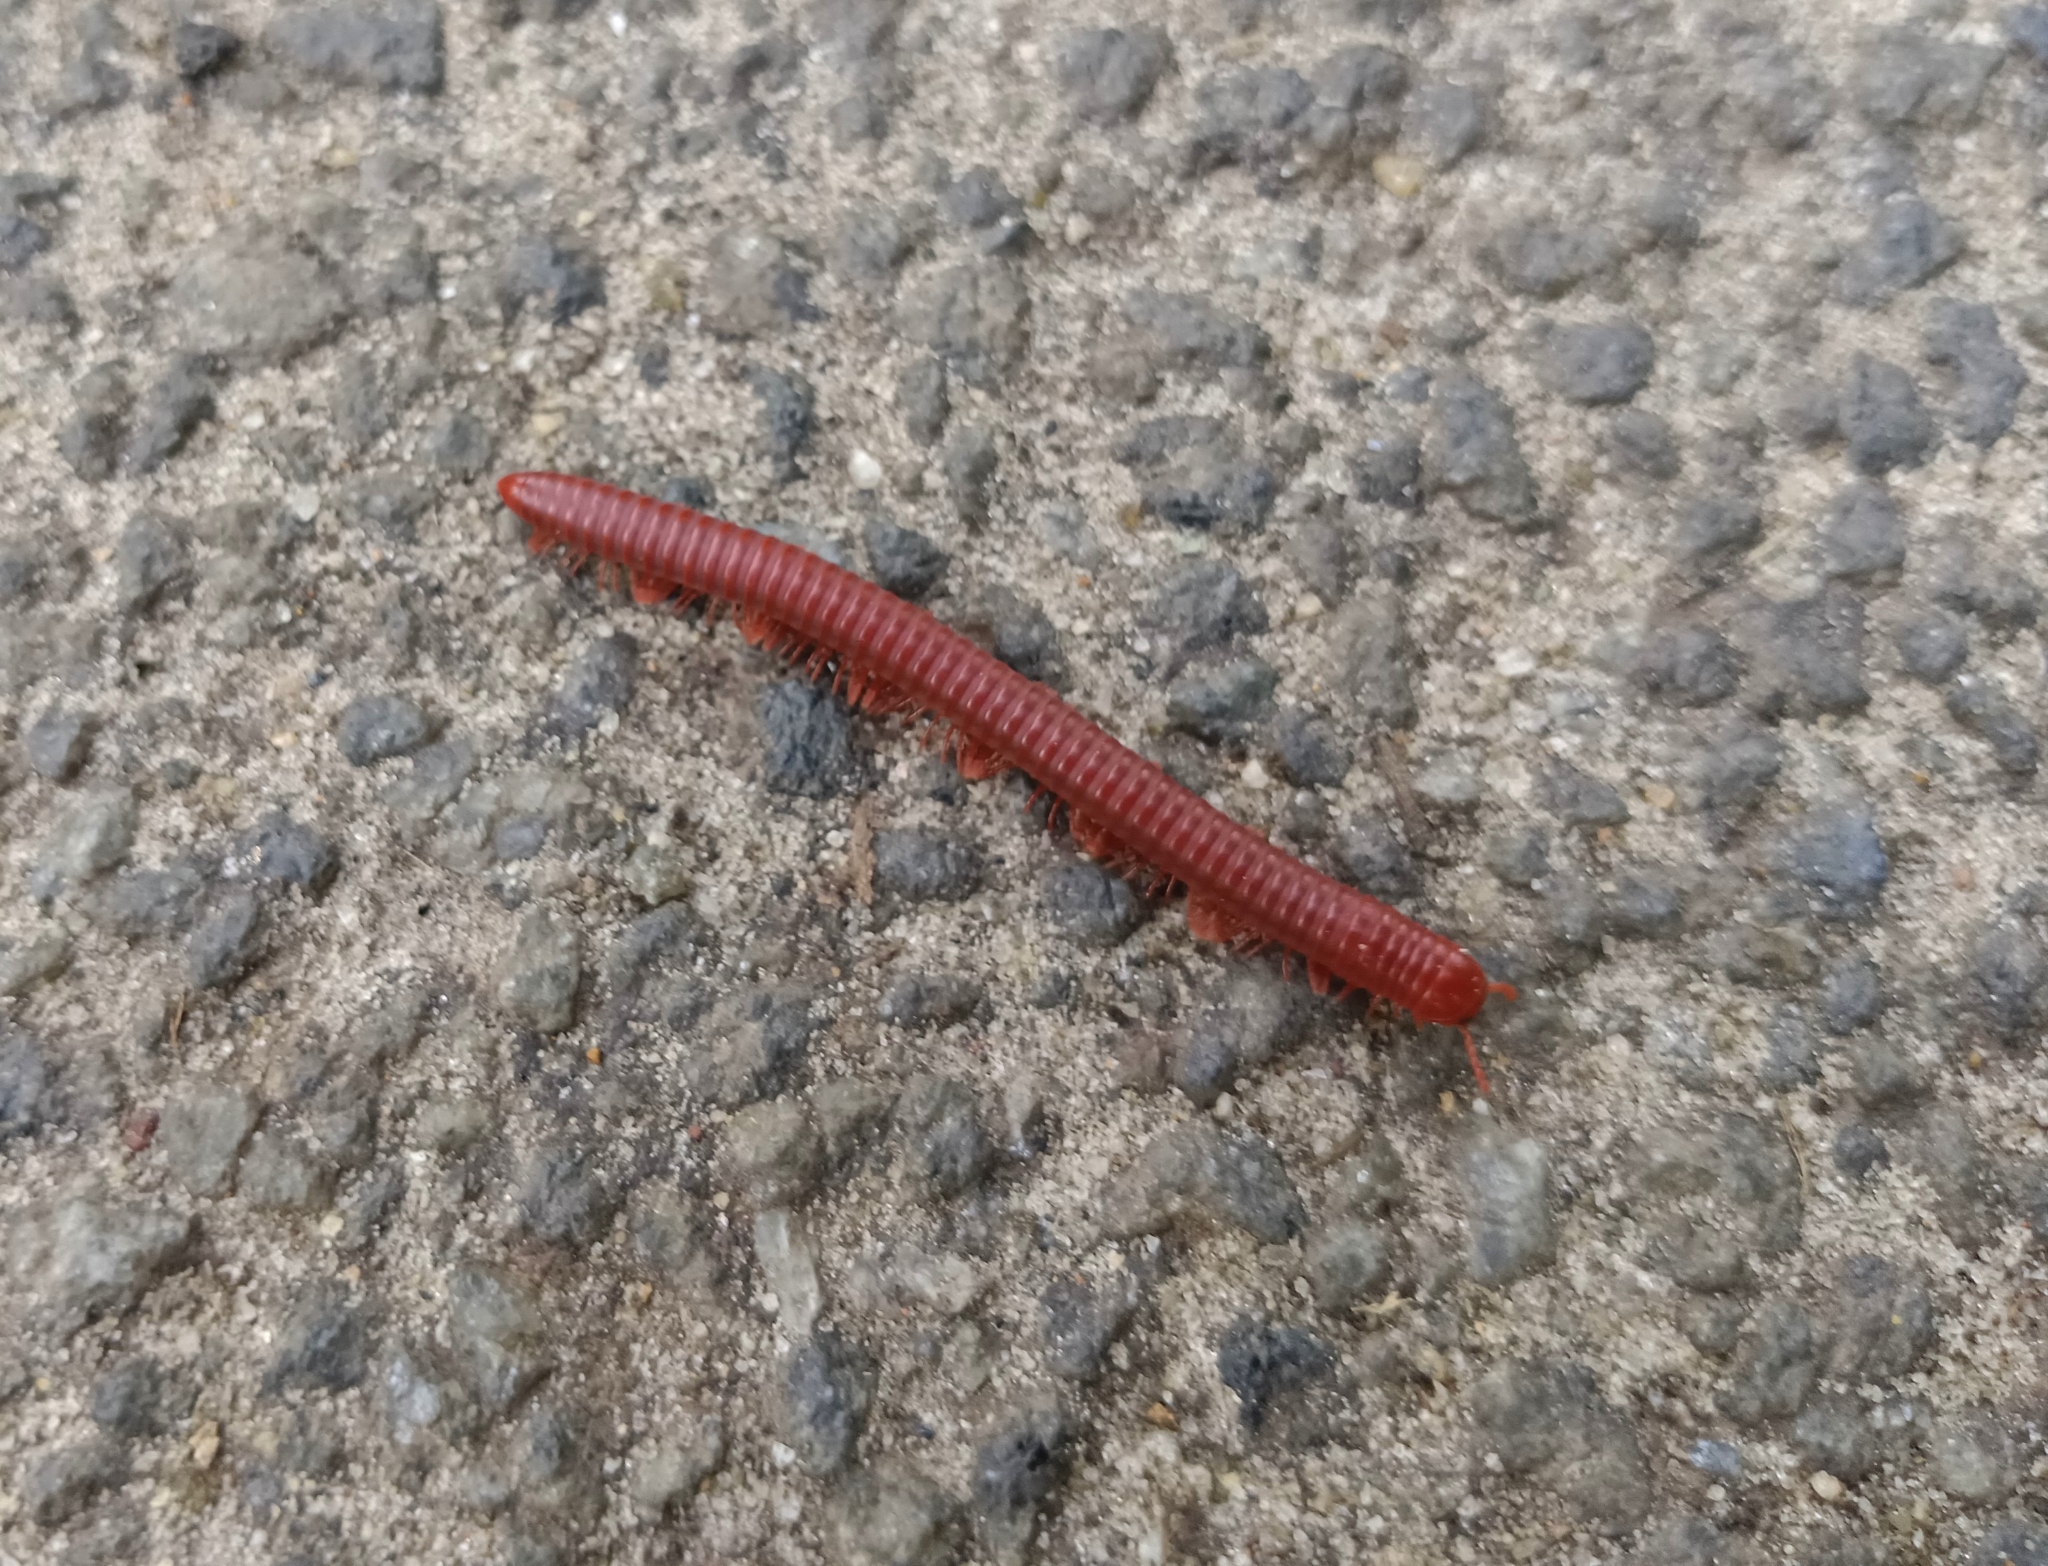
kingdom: Animalia
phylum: Arthropoda
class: Diplopoda
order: Spirobolida
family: Pachybolidae
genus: Trigoniulus
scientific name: Trigoniulus corallinus
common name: Millipede
